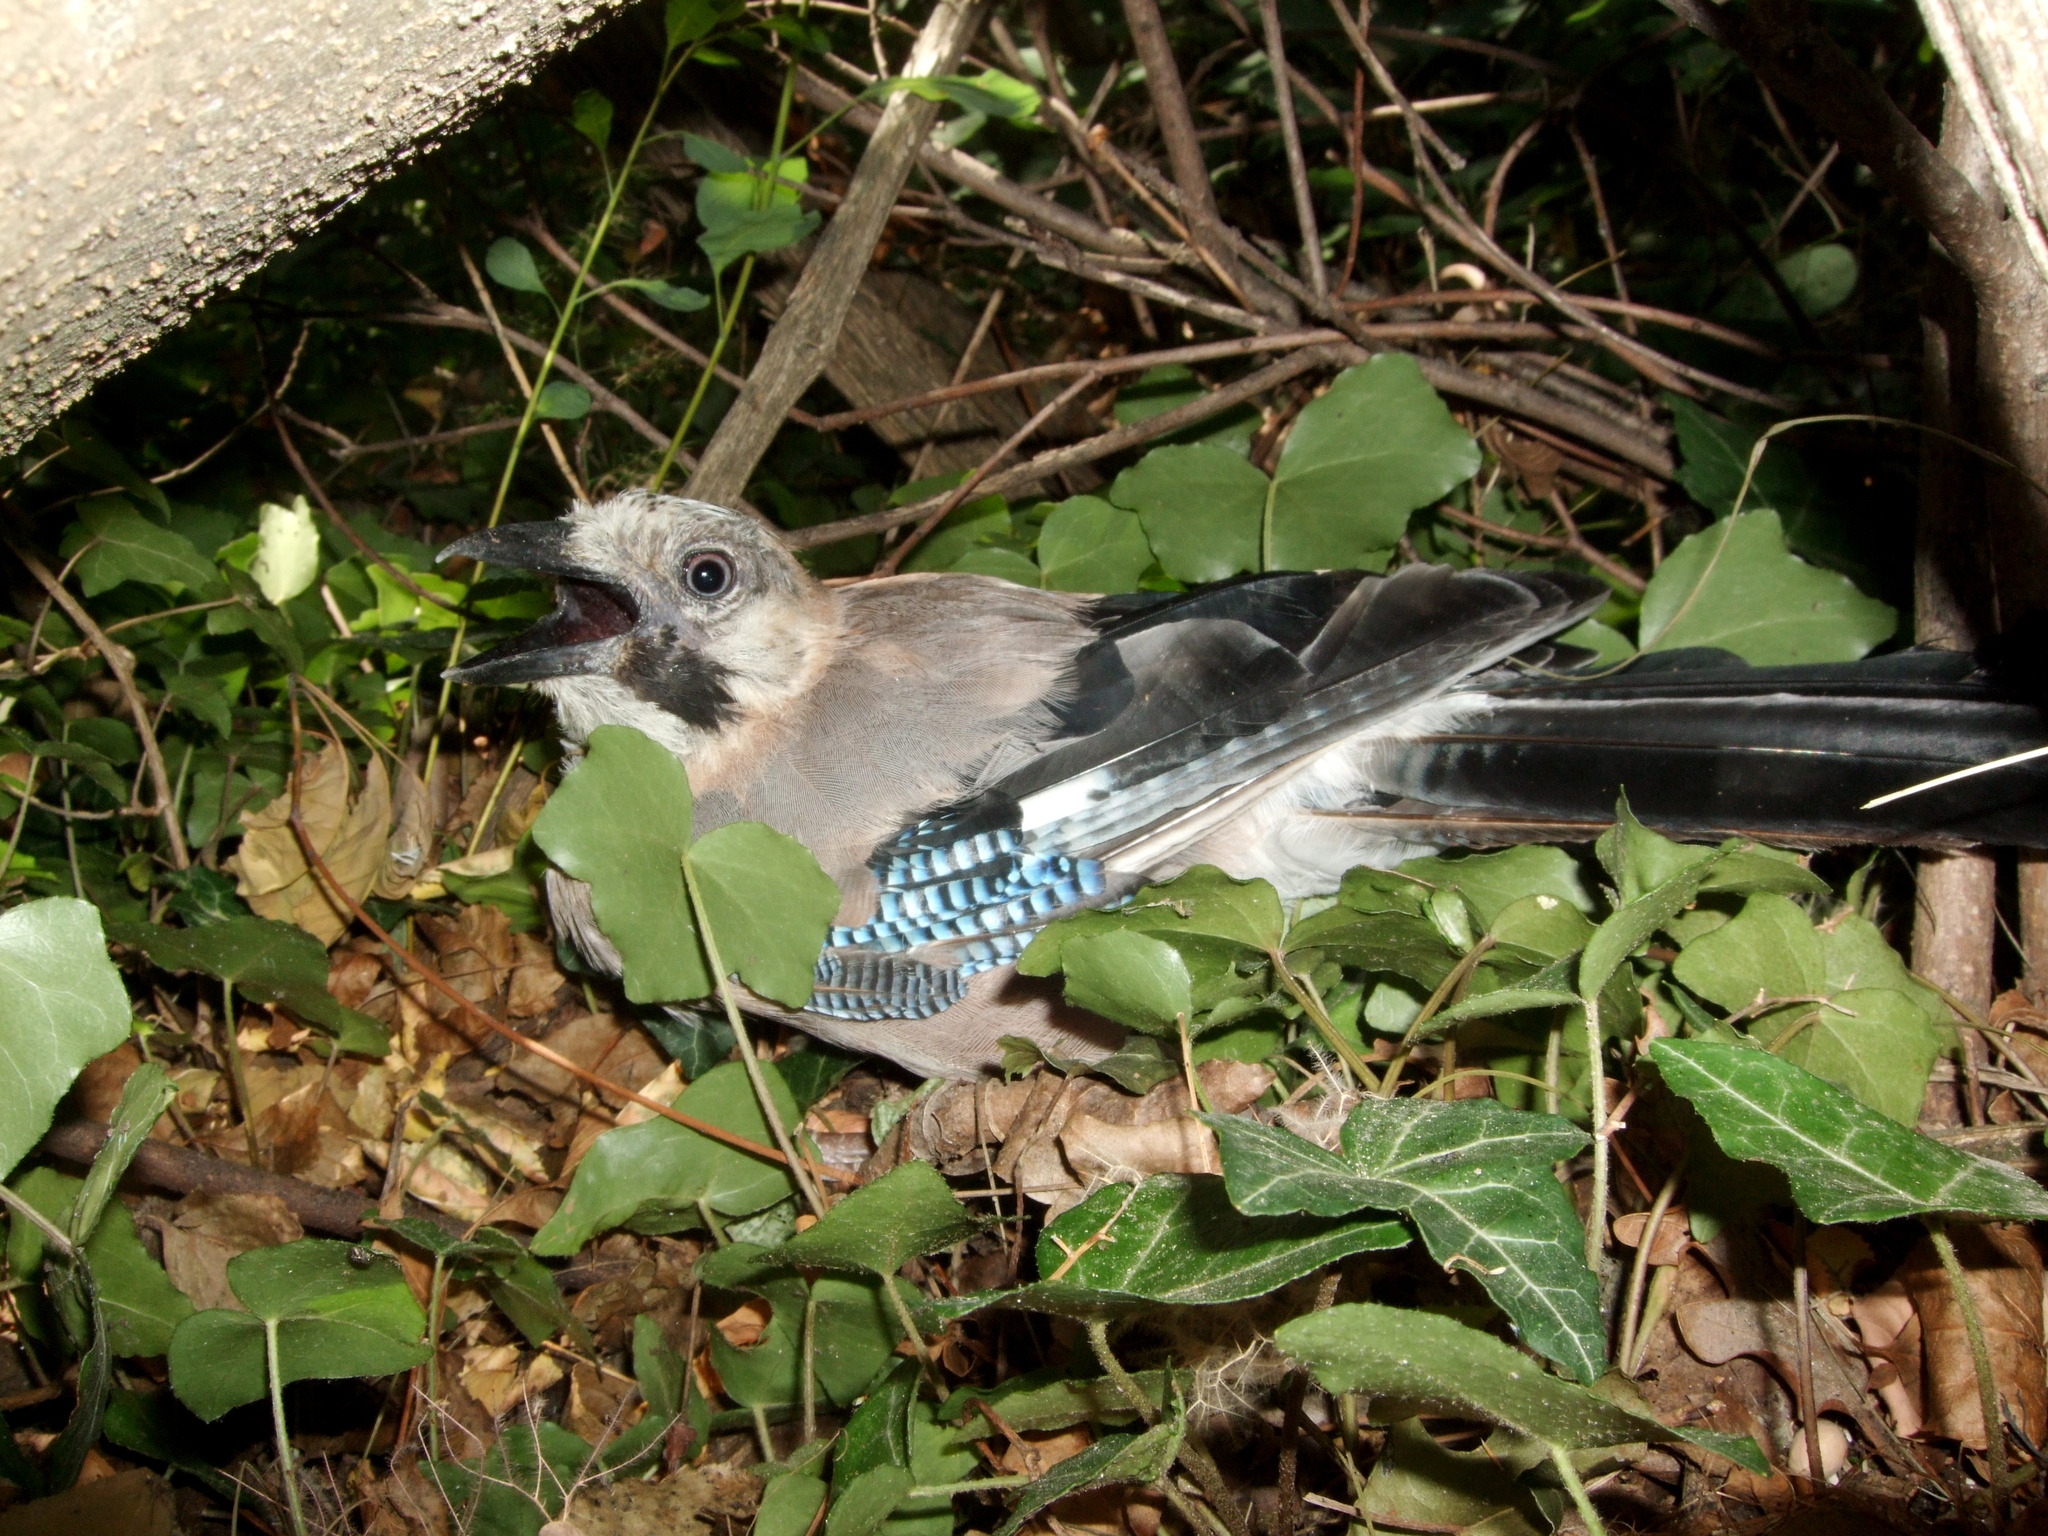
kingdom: Animalia
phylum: Chordata
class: Aves
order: Passeriformes
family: Corvidae
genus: Garrulus
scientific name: Garrulus glandarius
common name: Eurasian jay
